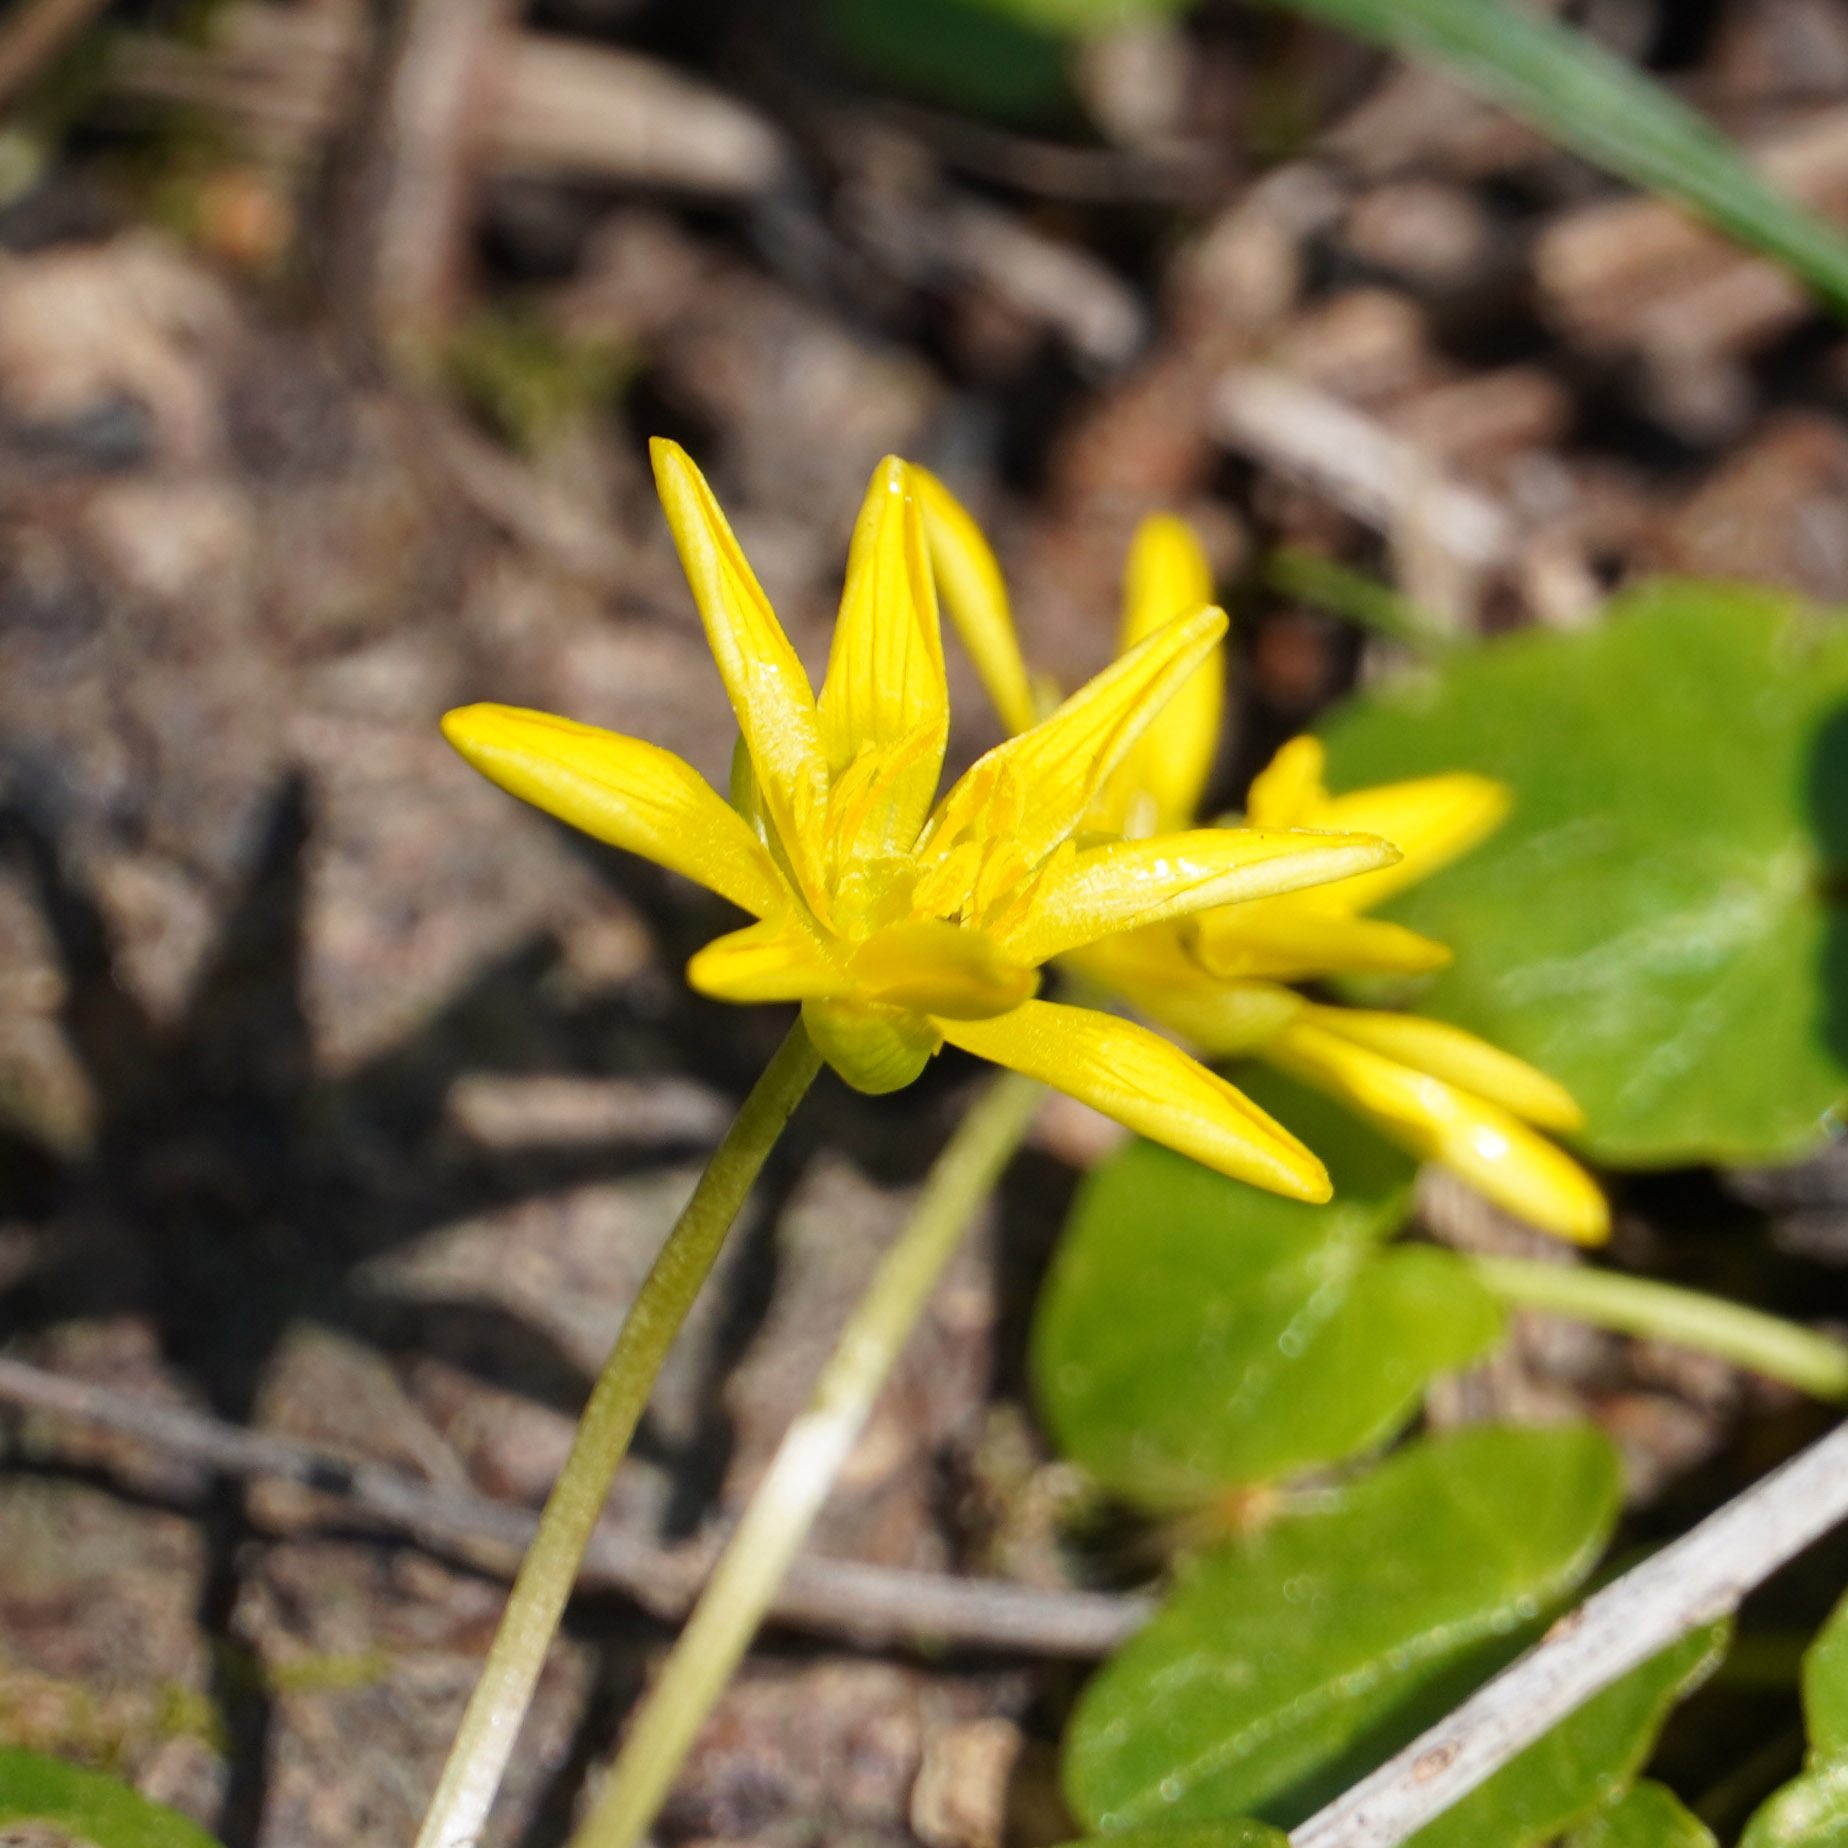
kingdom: Plantae
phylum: Tracheophyta
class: Magnoliopsida
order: Ranunculales
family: Ranunculaceae
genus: Ficaria
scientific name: Ficaria verna
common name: Lesser celandine
